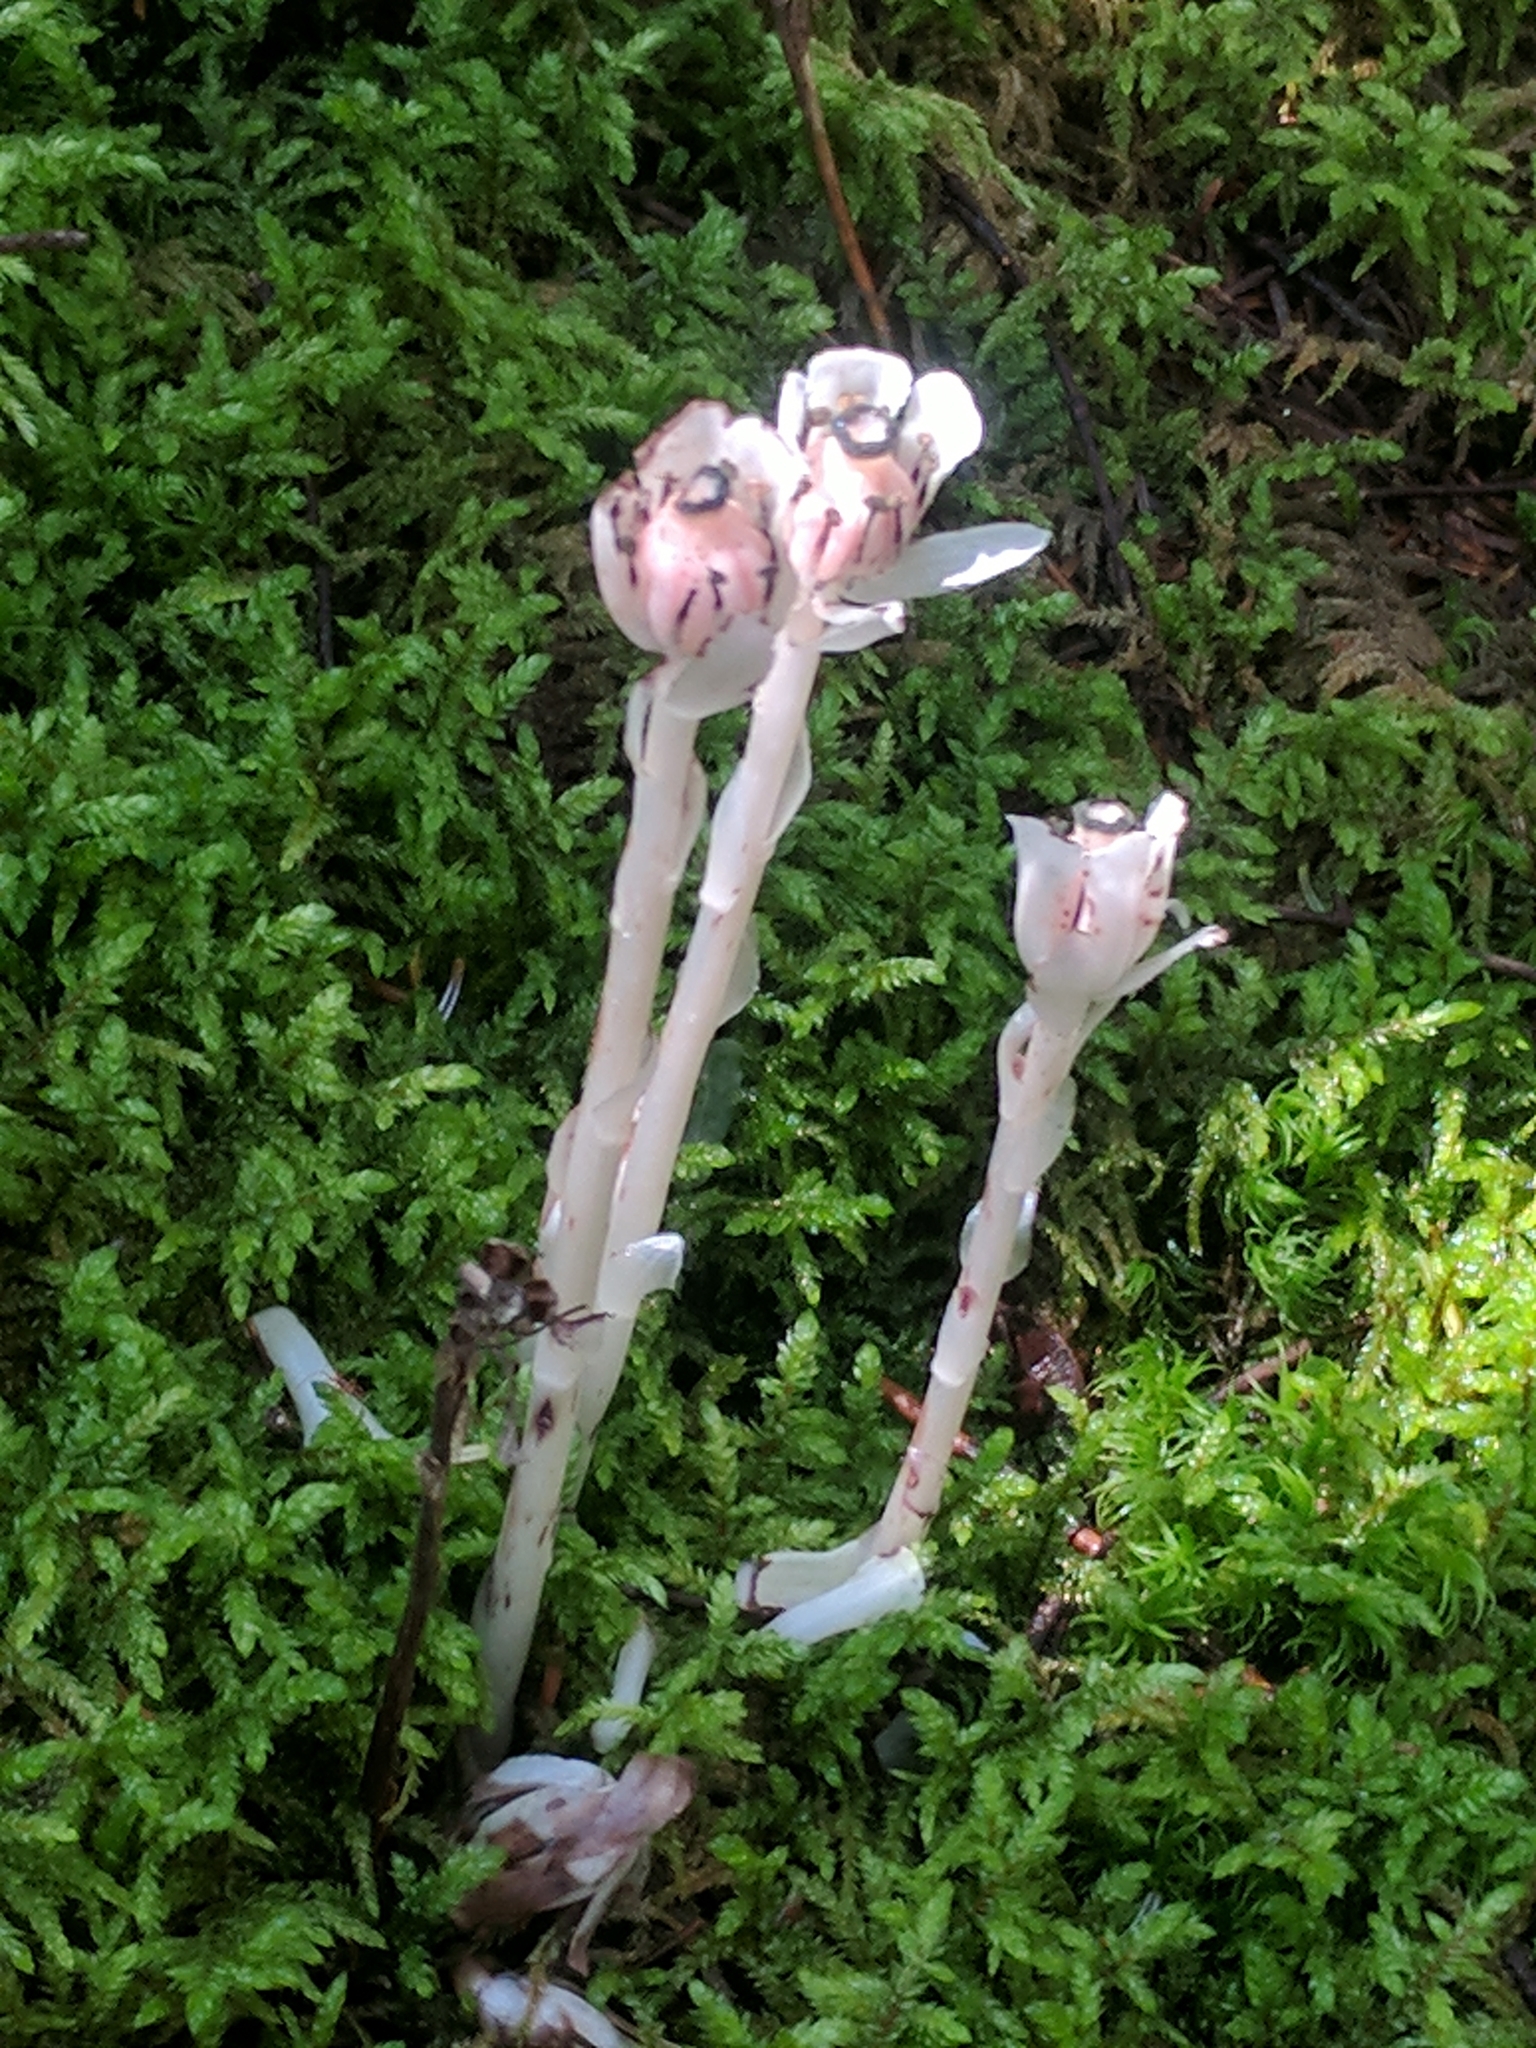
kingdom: Plantae
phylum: Tracheophyta
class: Magnoliopsida
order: Ericales
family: Ericaceae
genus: Monotropa
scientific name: Monotropa uniflora
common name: Convulsion root
